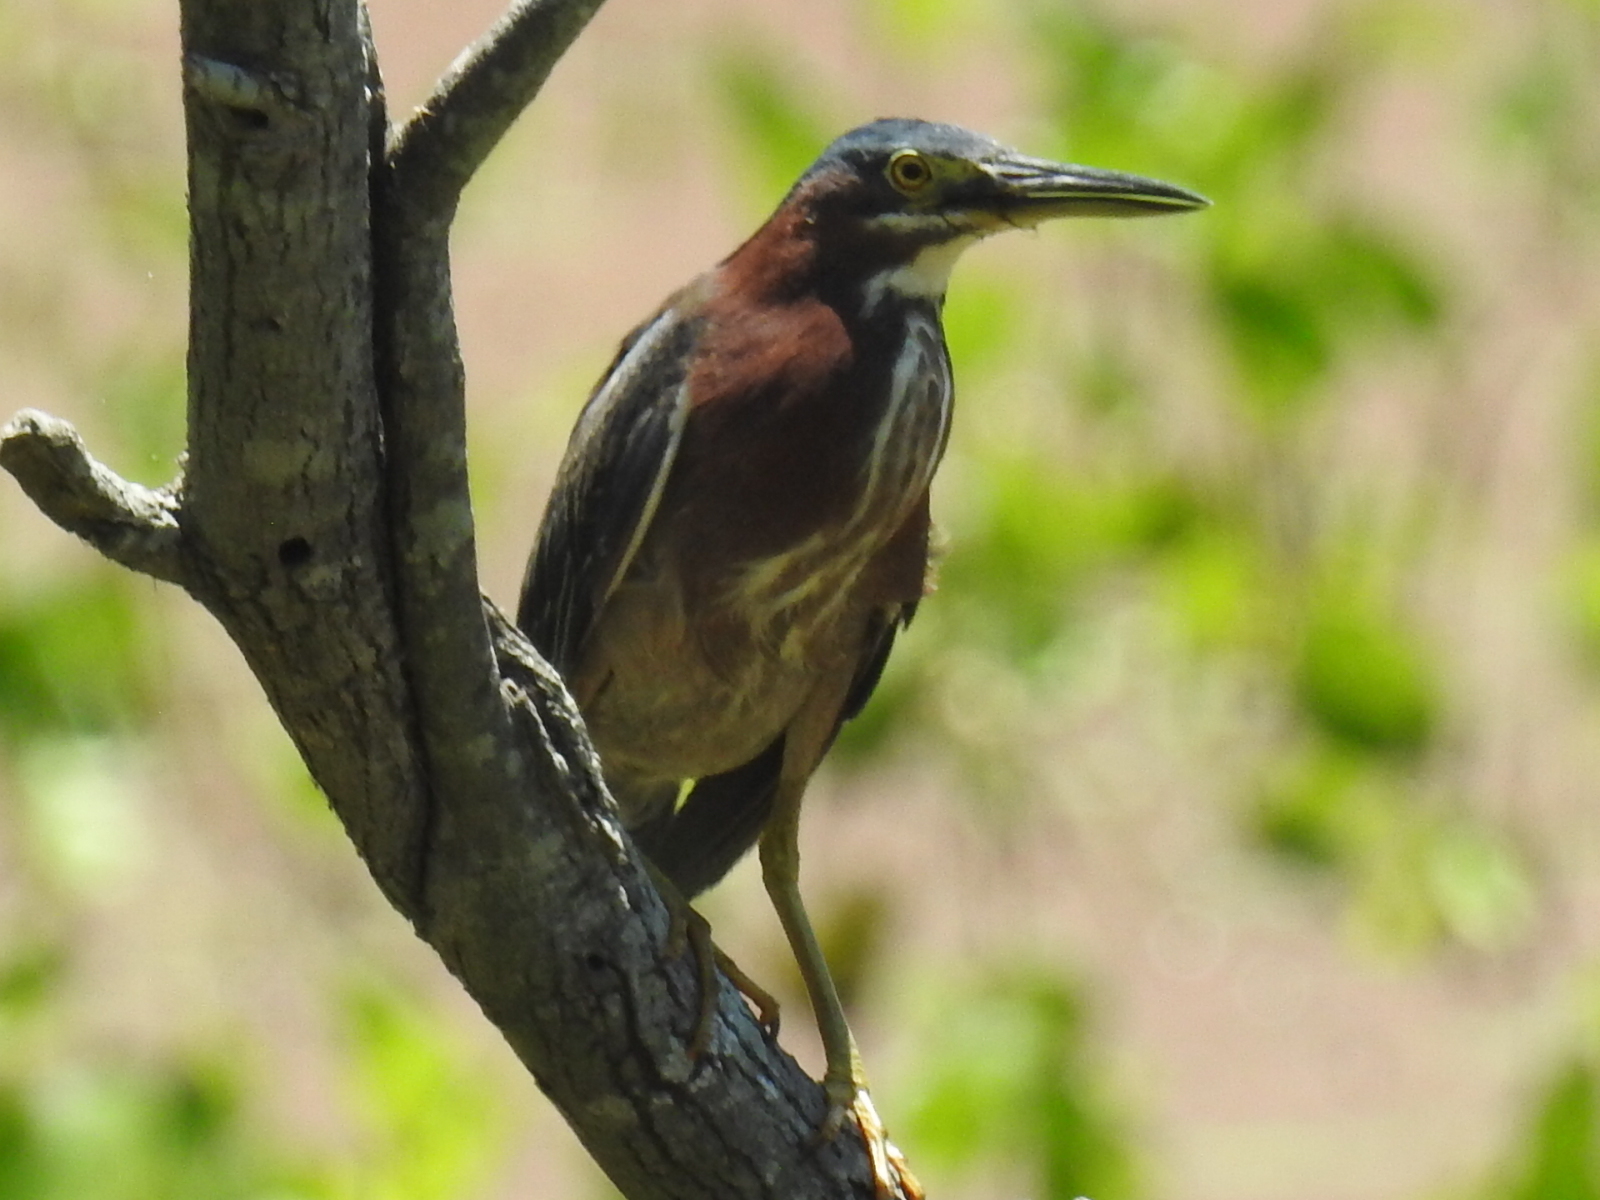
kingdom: Animalia
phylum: Chordata
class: Aves
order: Pelecaniformes
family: Ardeidae
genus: Butorides
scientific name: Butorides virescens
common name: Green heron
